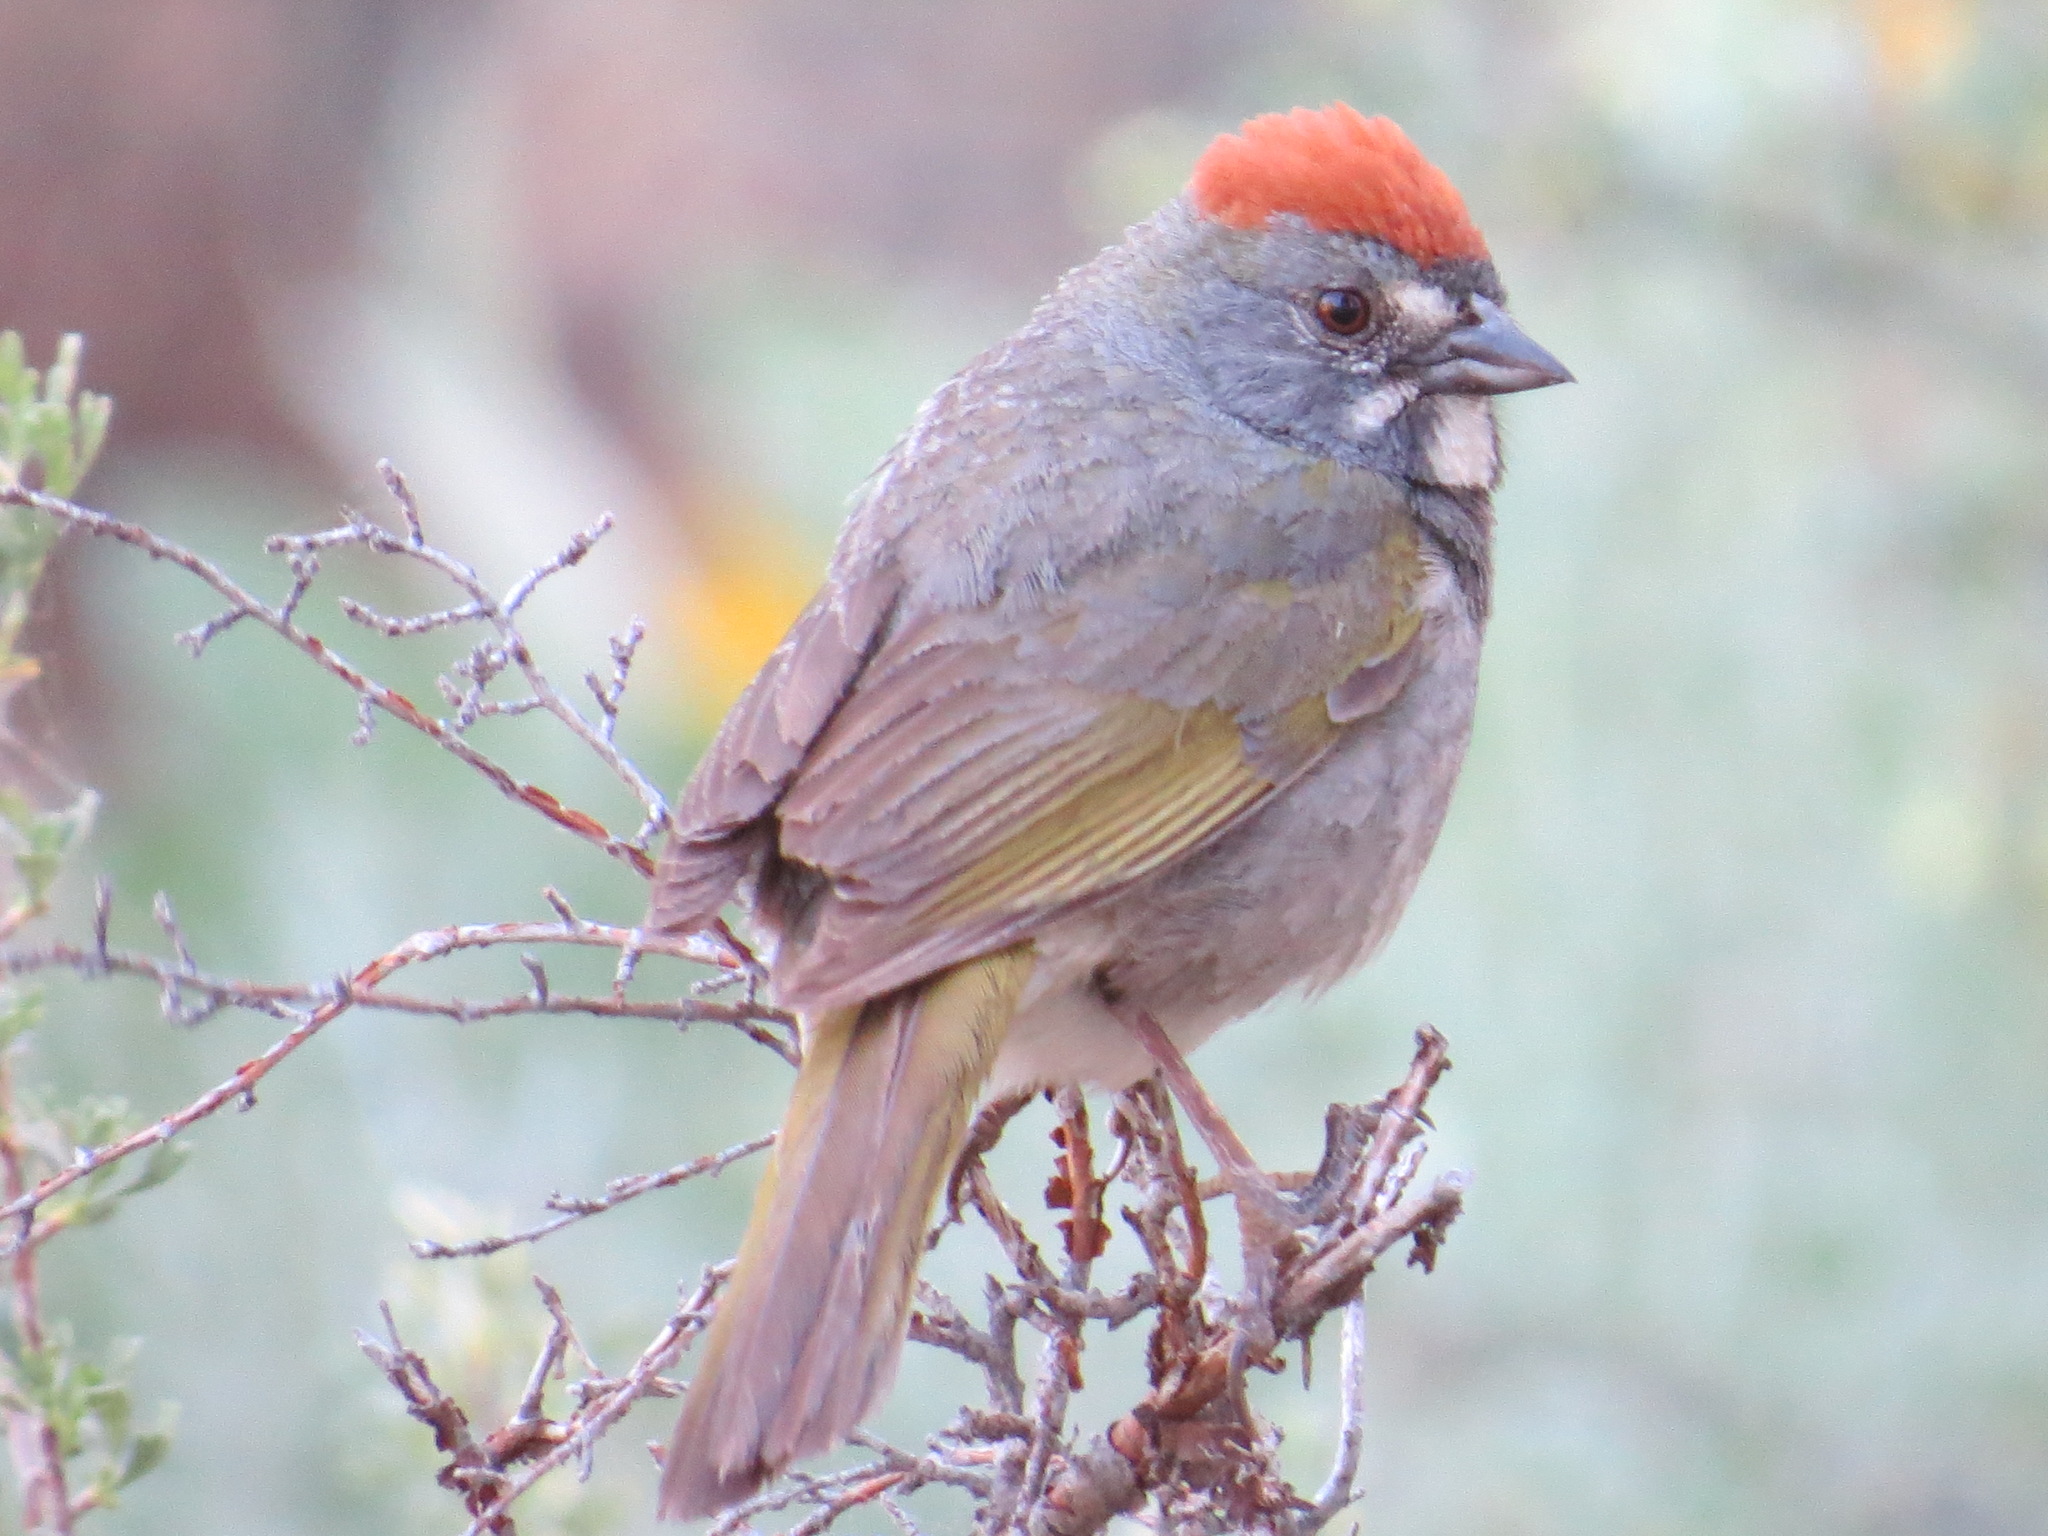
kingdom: Animalia
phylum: Chordata
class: Aves
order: Passeriformes
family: Passerellidae
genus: Pipilo
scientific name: Pipilo chlorurus
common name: Green-tailed towhee
